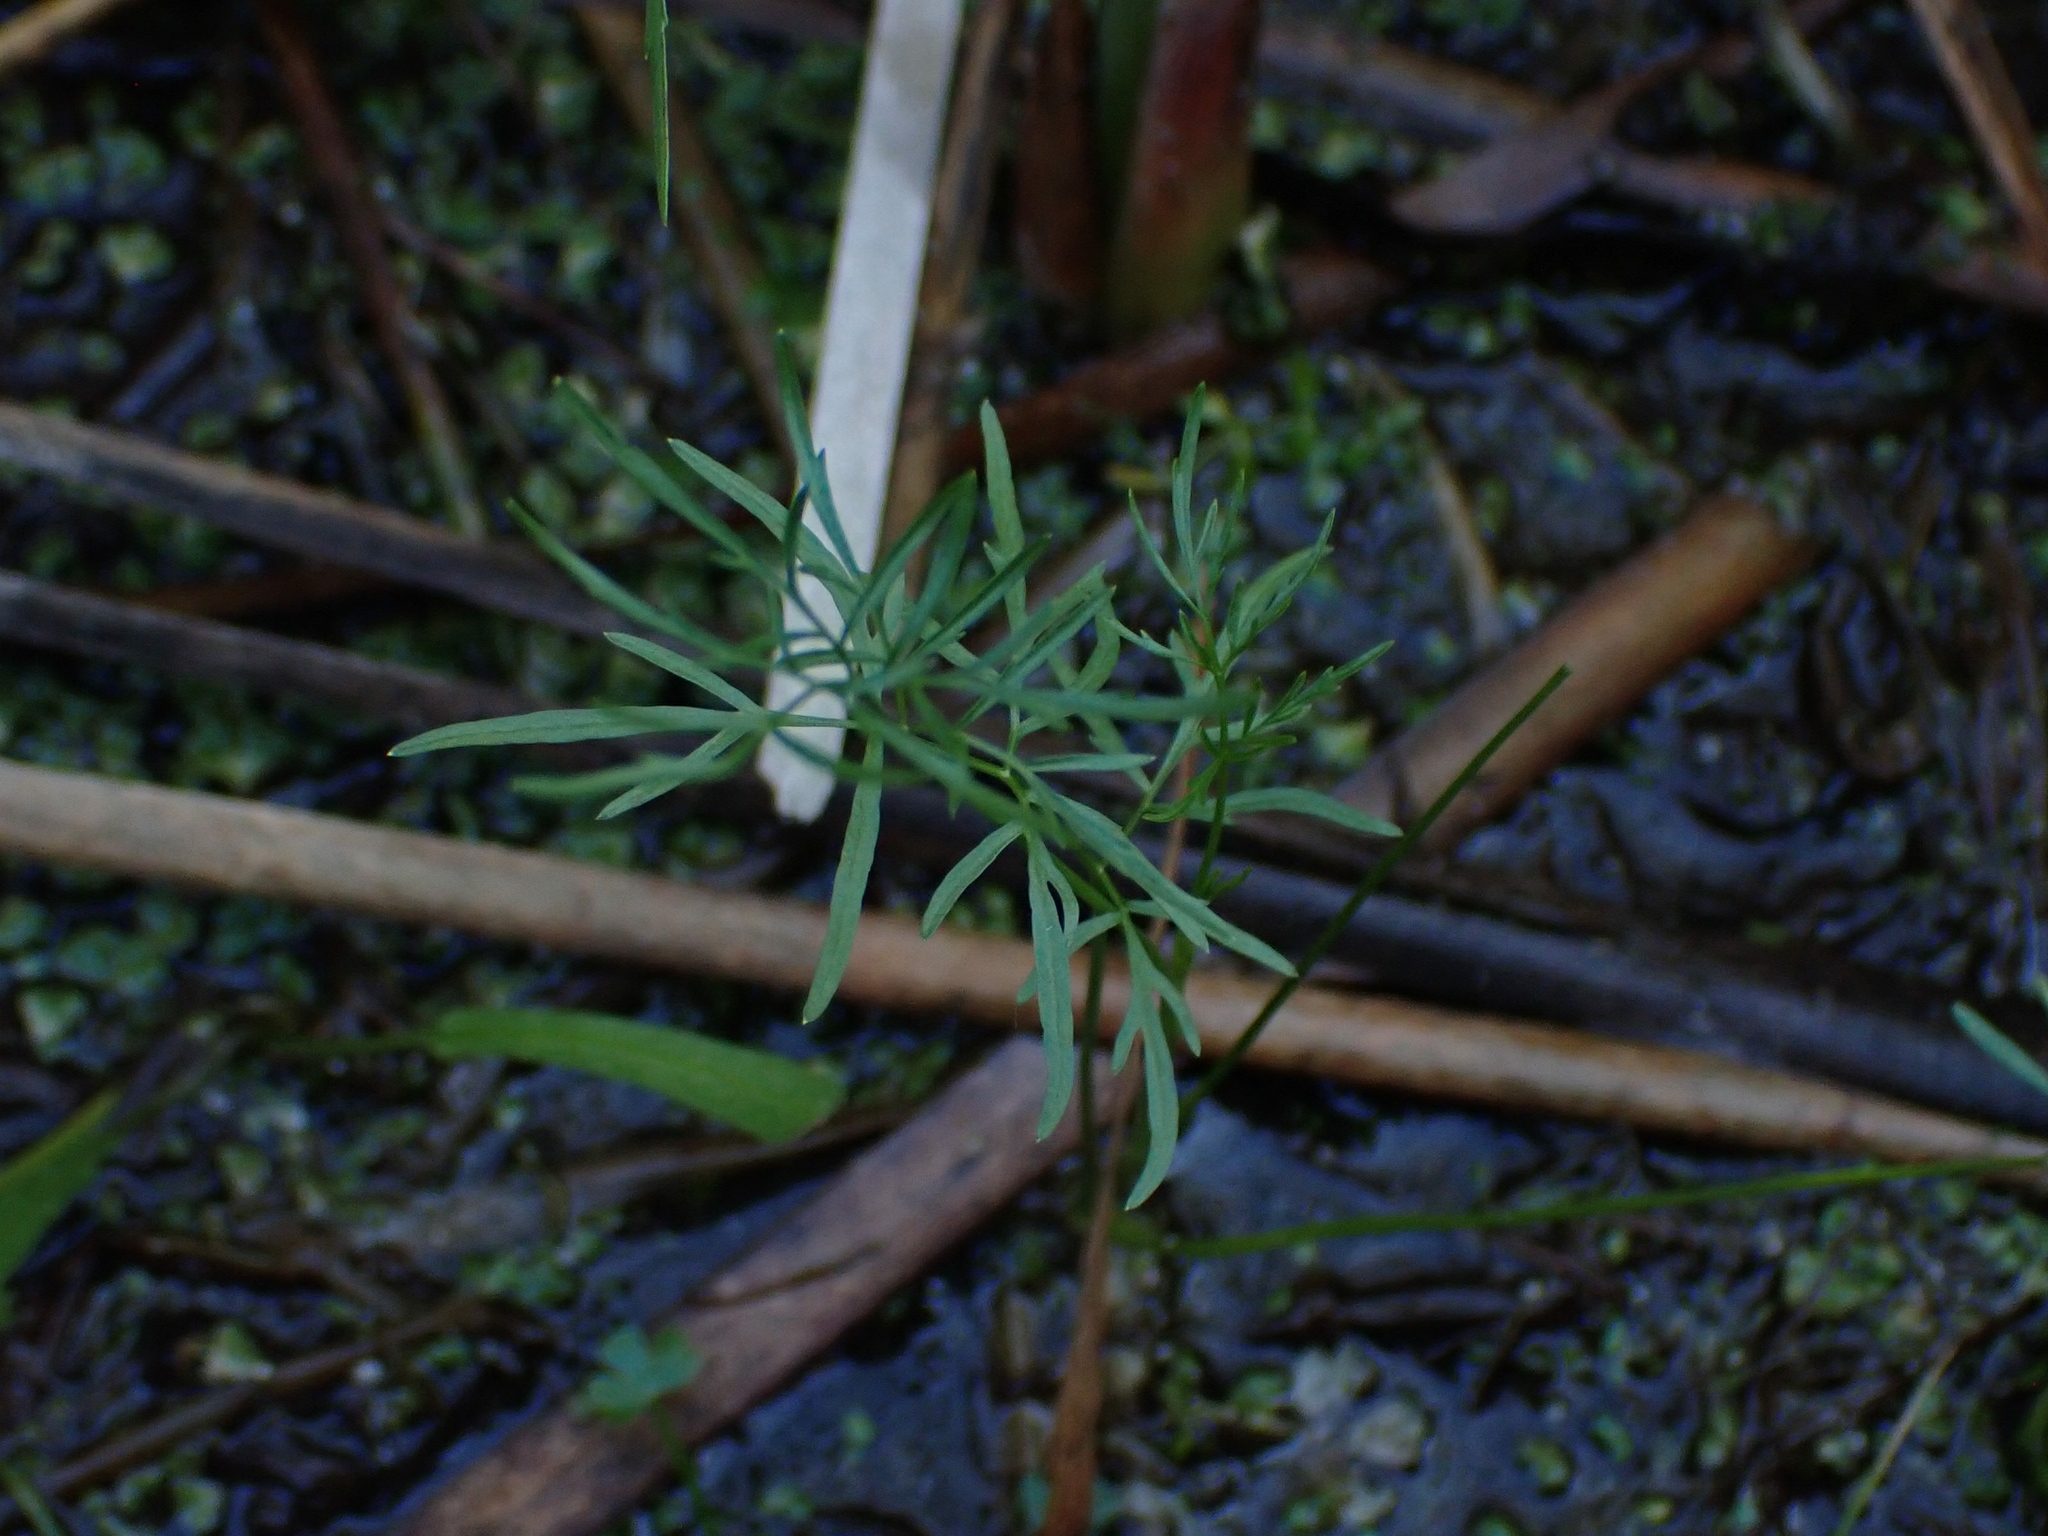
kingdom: Plantae
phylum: Tracheophyta
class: Magnoliopsida
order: Apiales
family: Apiaceae
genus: Sium
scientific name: Sium suave
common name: Hemlock water-parsnip
